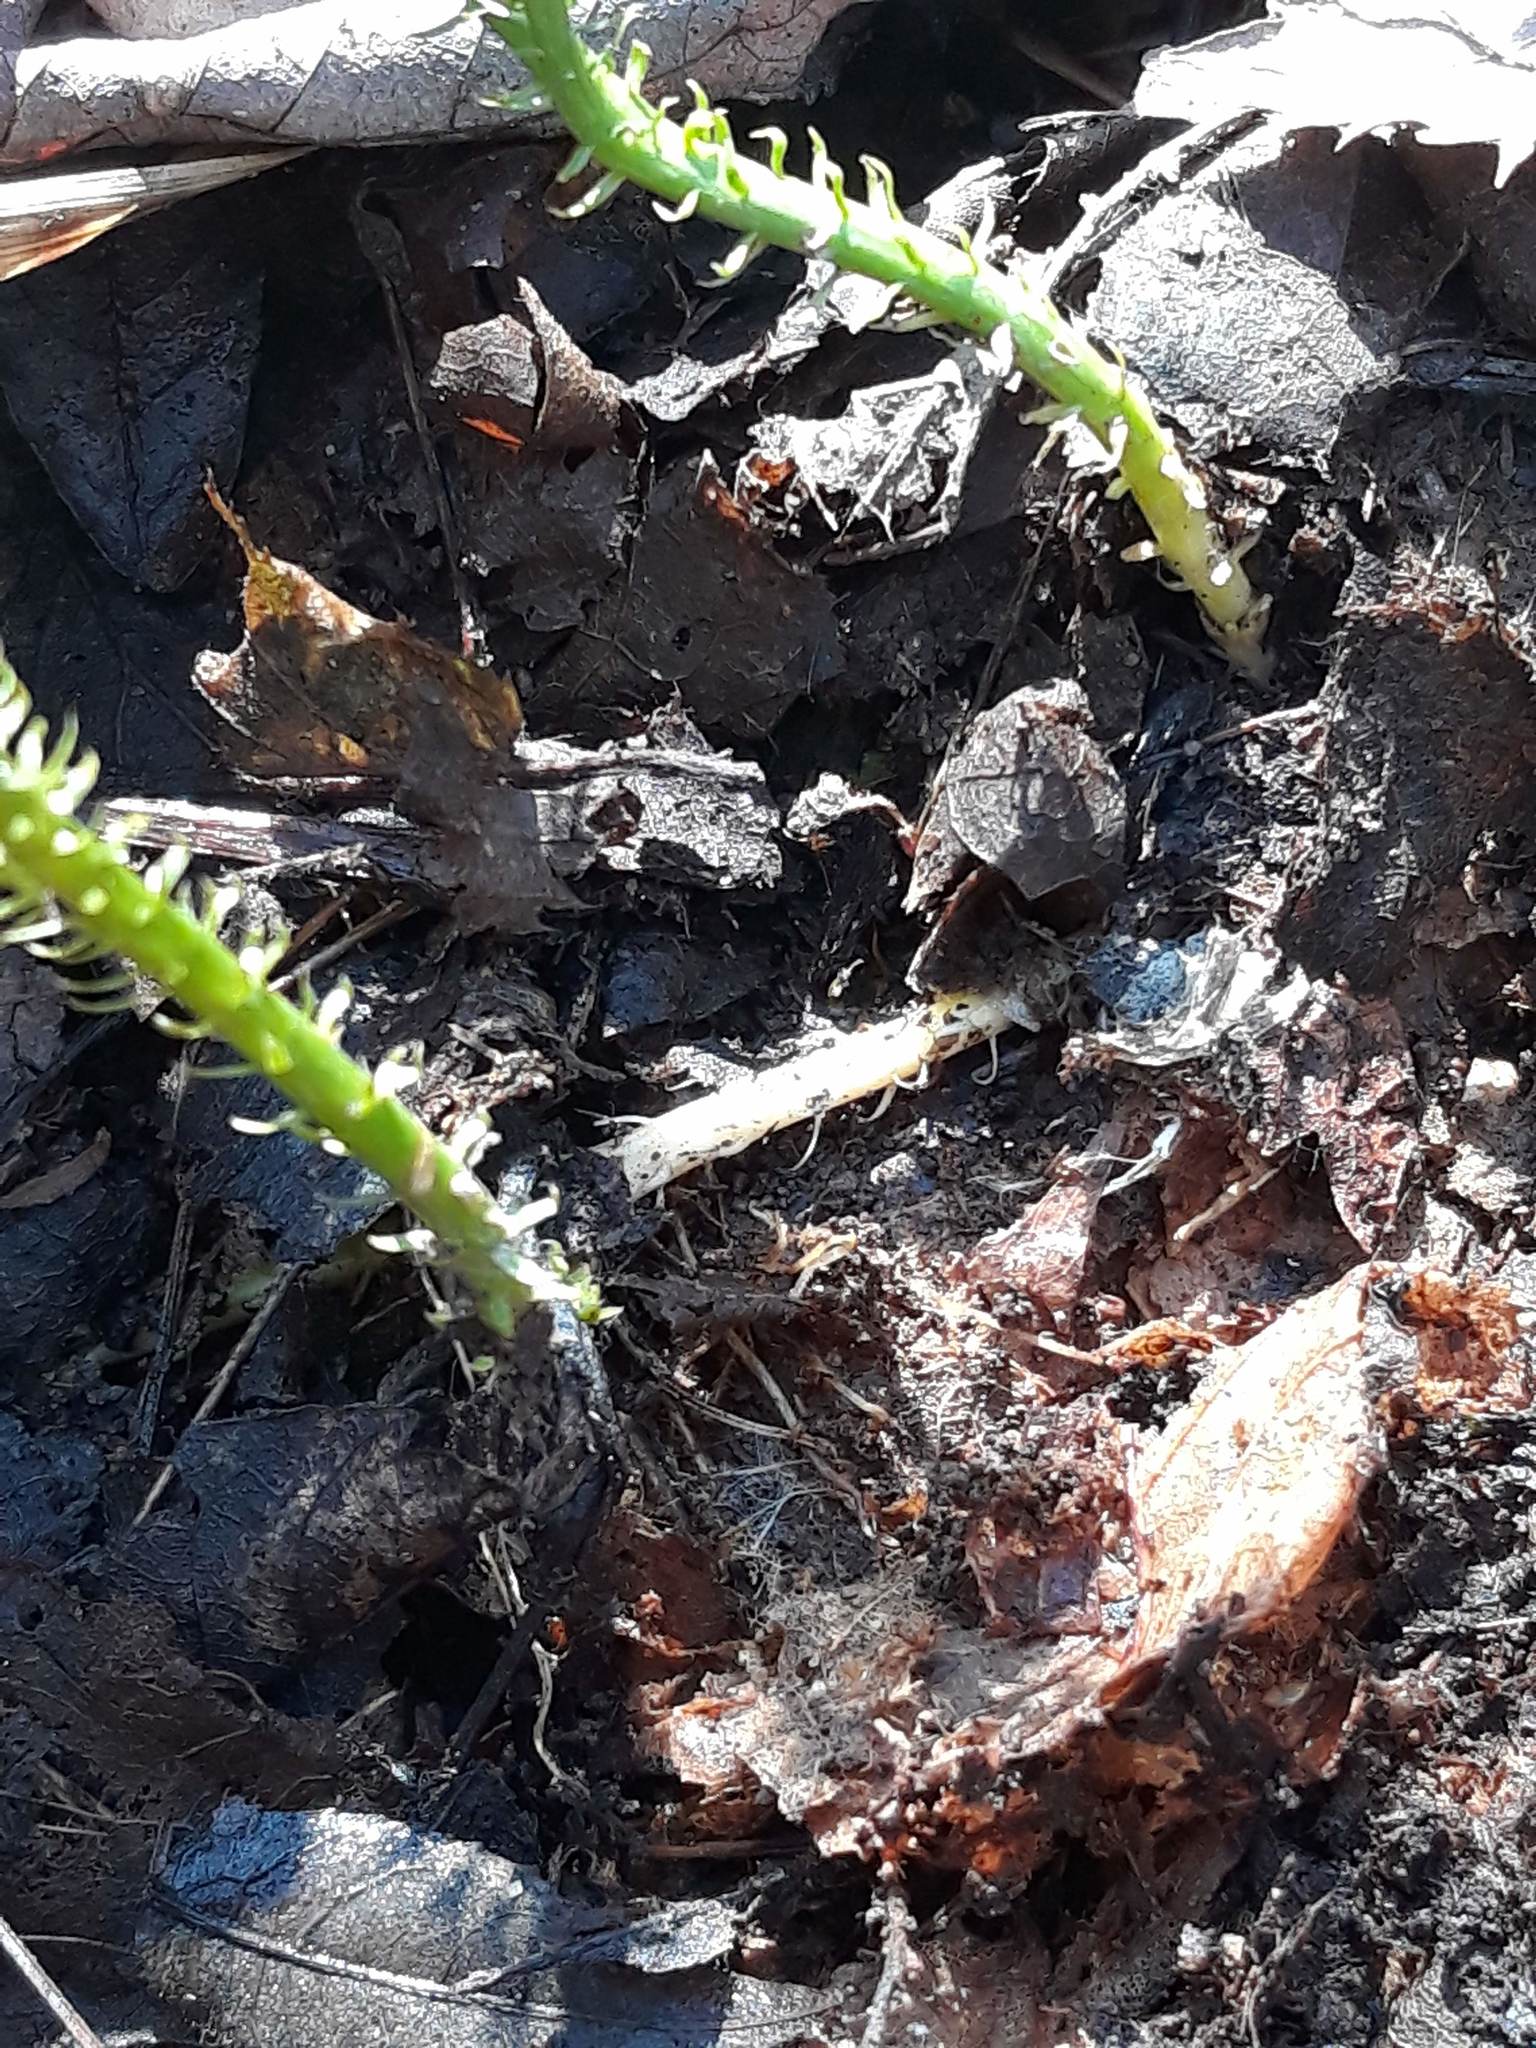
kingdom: Plantae
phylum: Tracheophyta
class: Lycopodiopsida
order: Lycopodiales
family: Lycopodiaceae
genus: Spinulum
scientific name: Spinulum annotinum
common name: Interrupted club-moss
